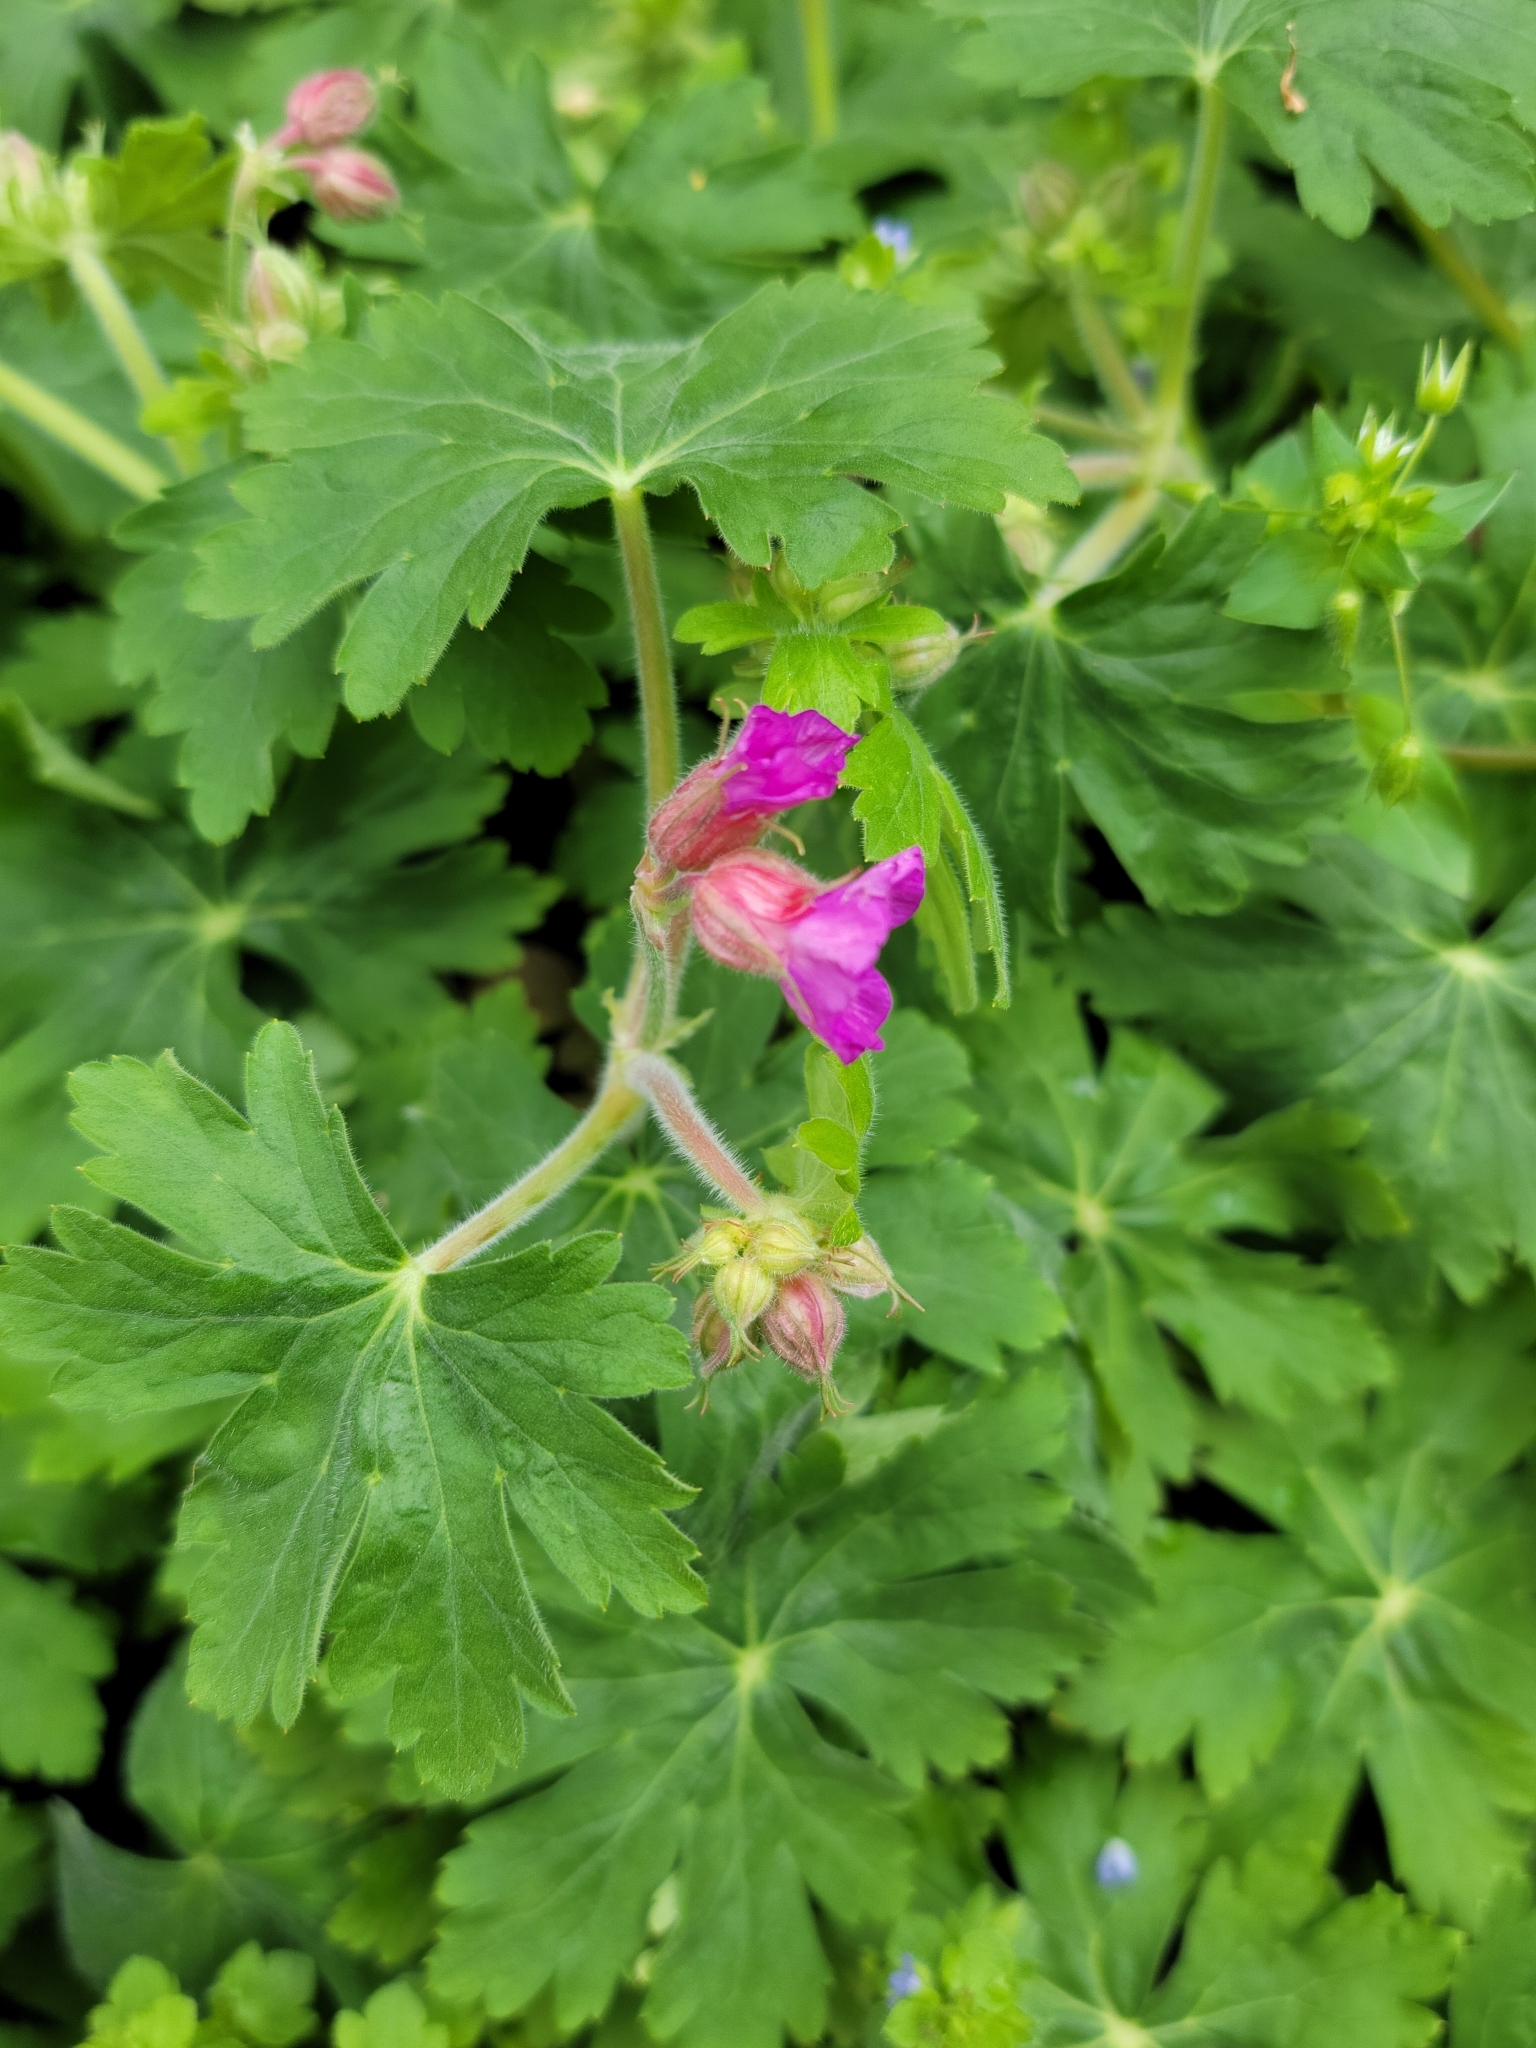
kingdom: Plantae
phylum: Tracheophyta
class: Magnoliopsida
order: Geraniales
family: Geraniaceae
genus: Geranium
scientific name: Geranium macrorrhizum
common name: Rock crane's-bill
